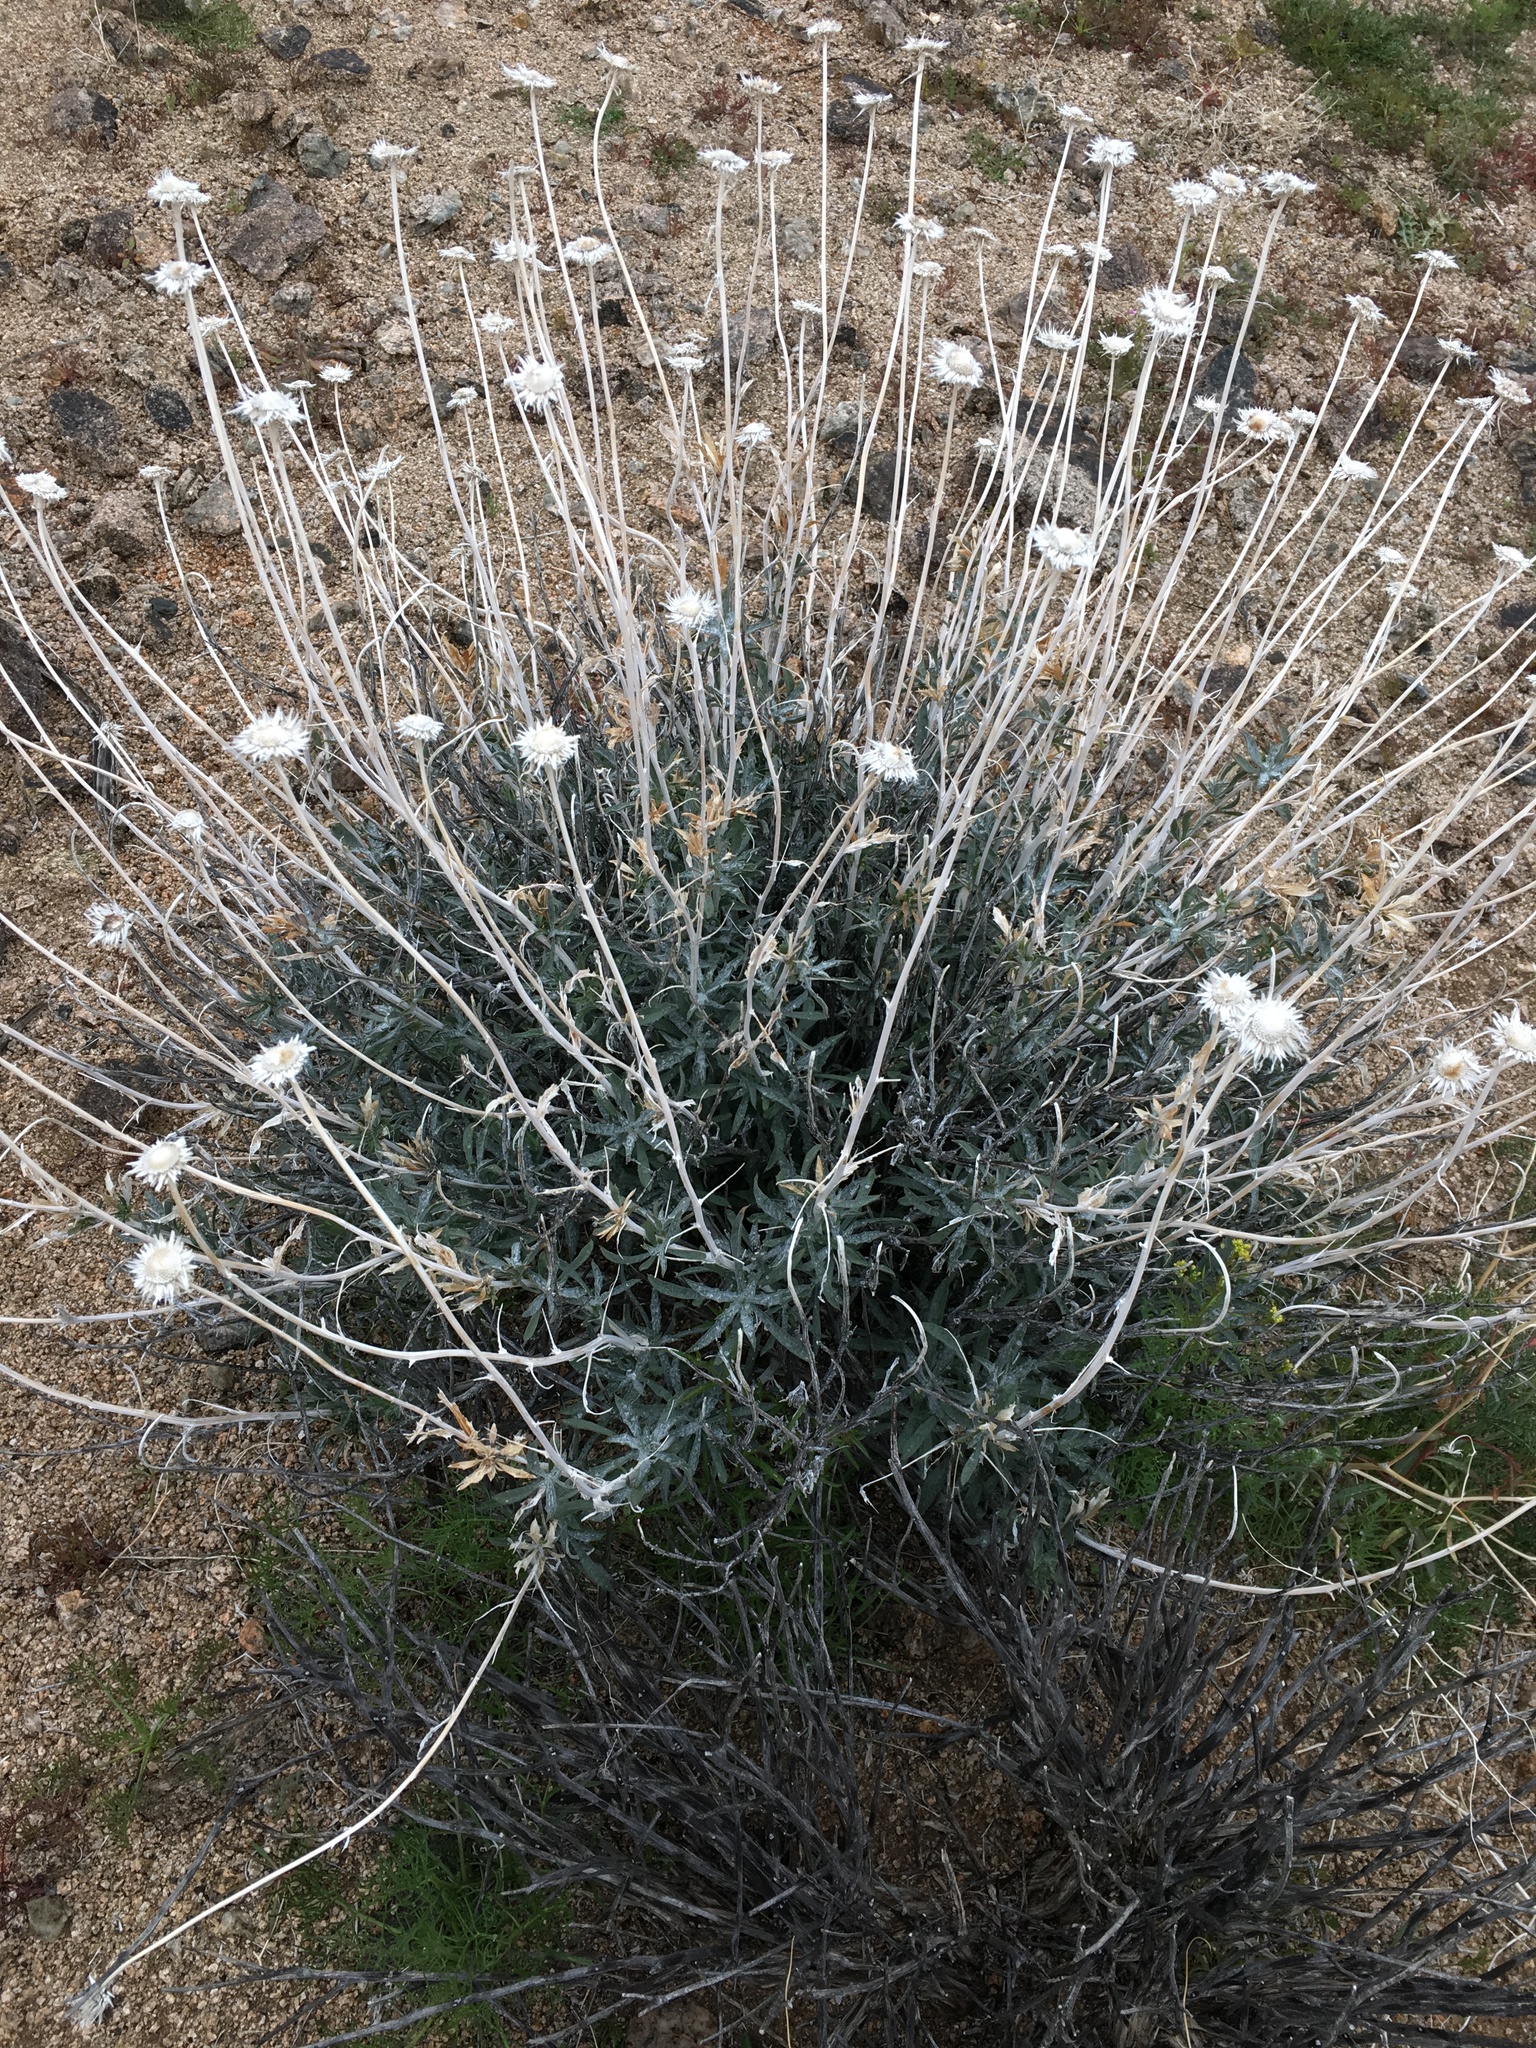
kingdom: Plantae
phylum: Tracheophyta
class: Magnoliopsida
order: Asterales
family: Asteraceae
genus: Xylorhiza
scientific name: Xylorhiza tortifolia
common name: Hurt-leaf woody-aster
